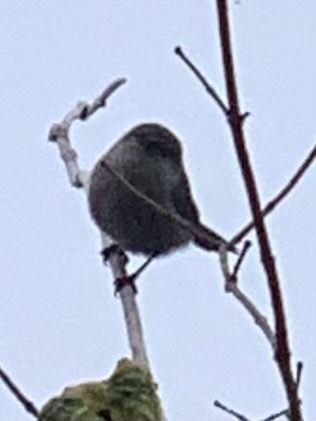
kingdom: Animalia
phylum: Chordata
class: Aves
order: Passeriformes
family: Aegithalidae
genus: Psaltriparus
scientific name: Psaltriparus minimus
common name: American bushtit
